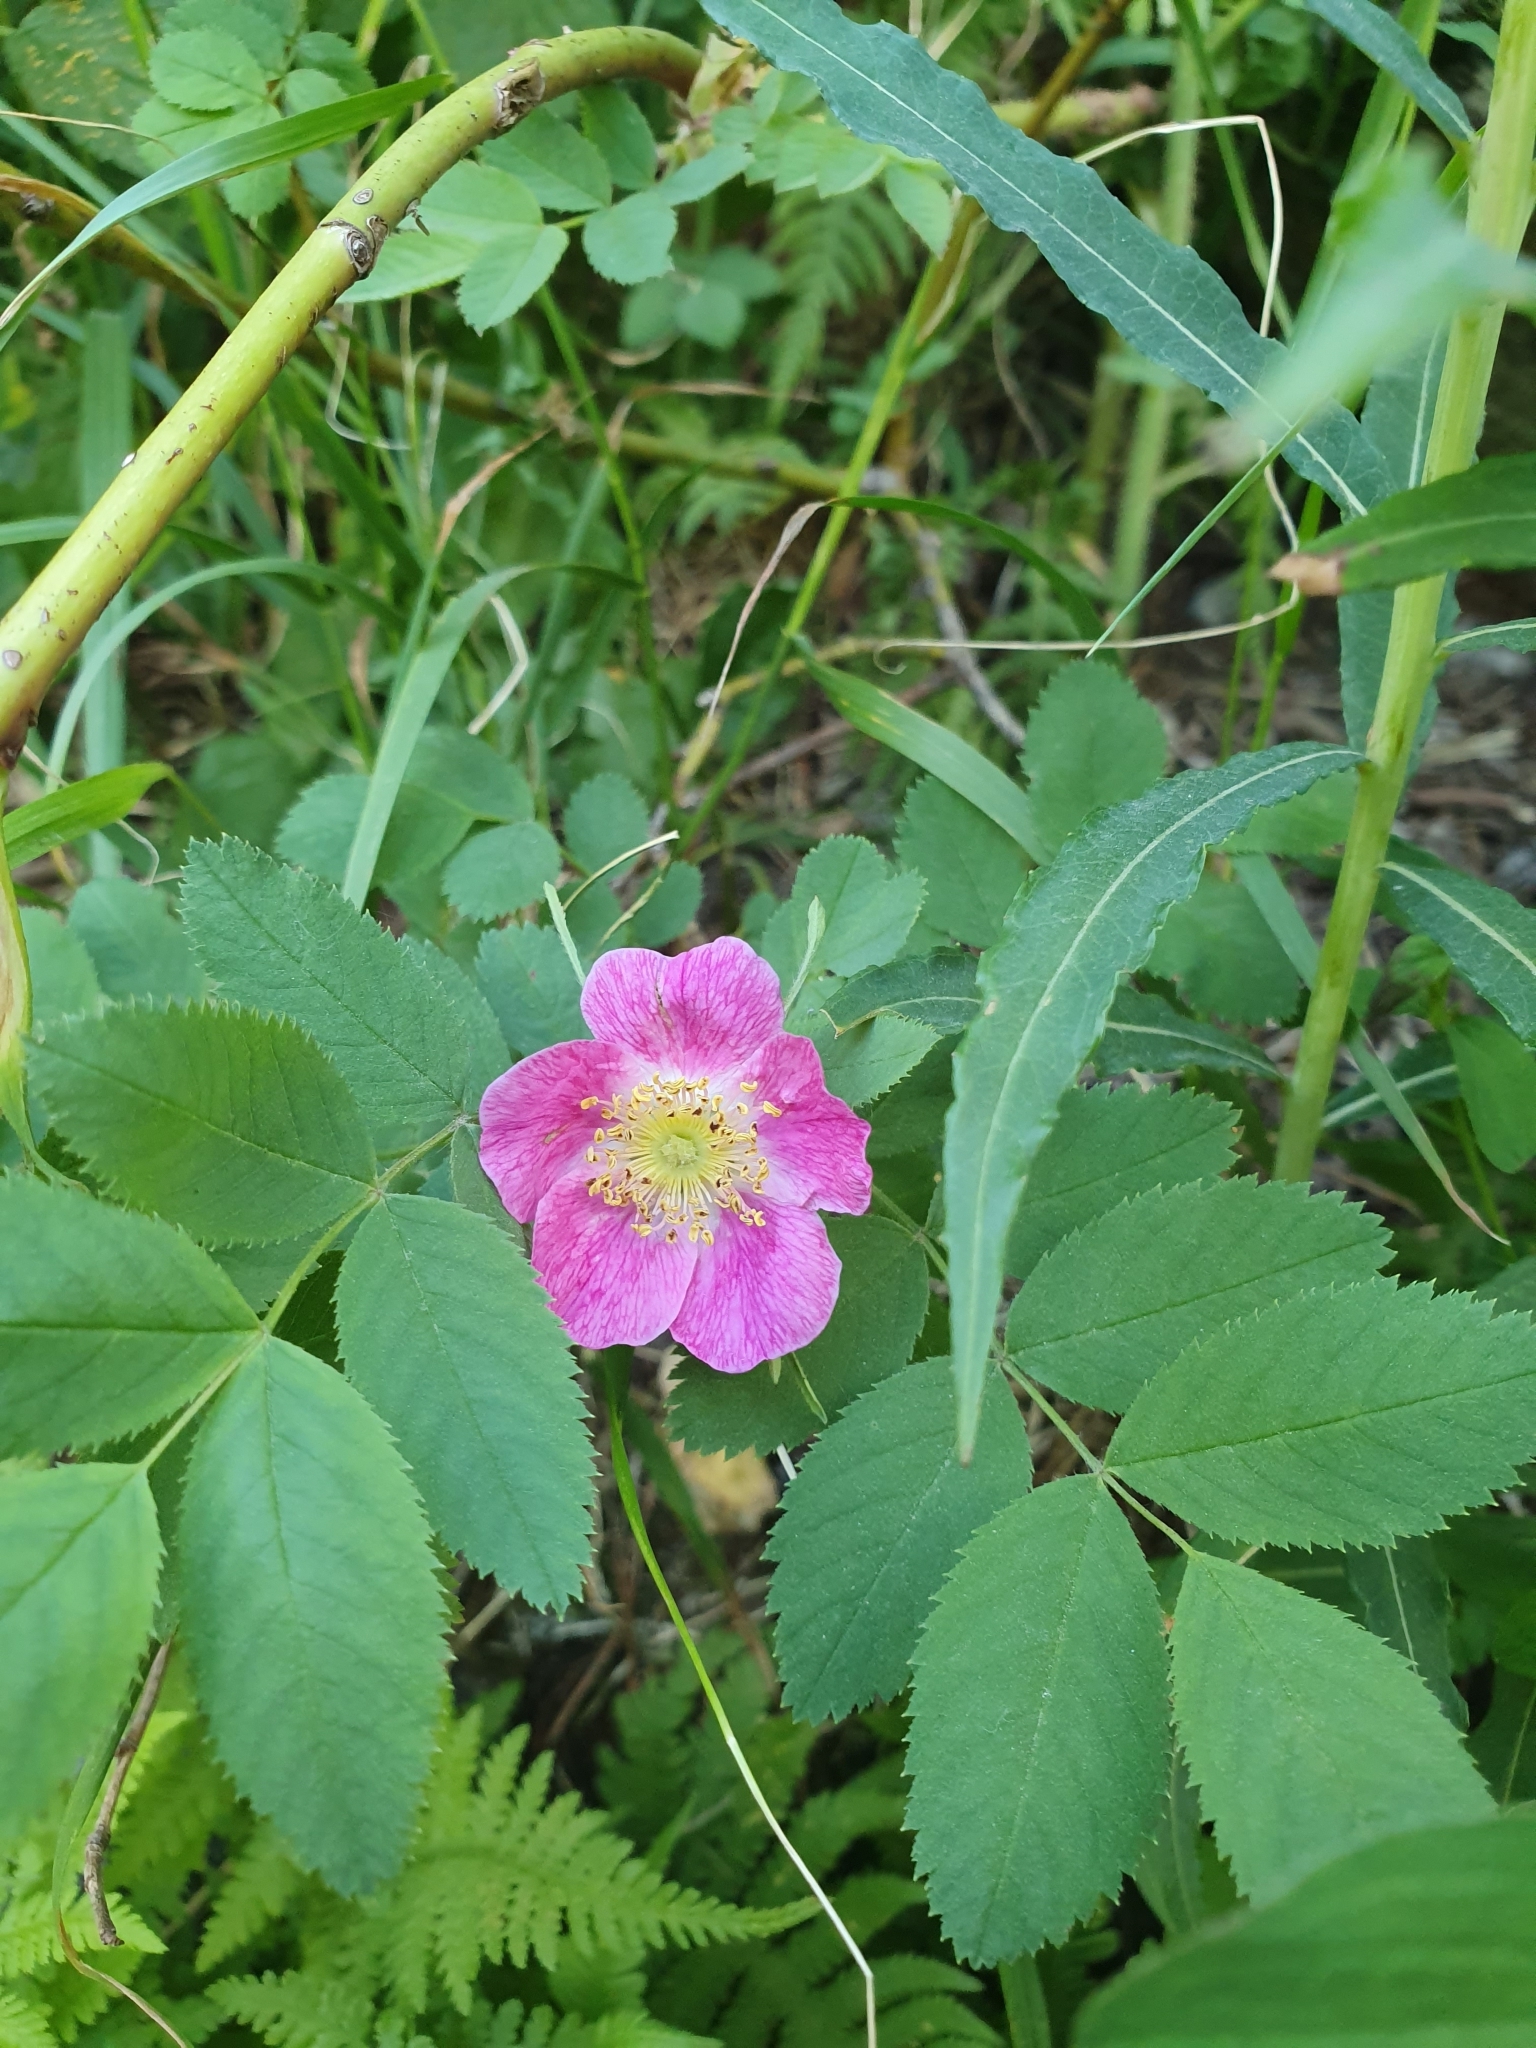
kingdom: Plantae
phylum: Tracheophyta
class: Magnoliopsida
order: Rosales
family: Rosaceae
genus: Rosa
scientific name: Rosa pendulina
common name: Alpine rose
